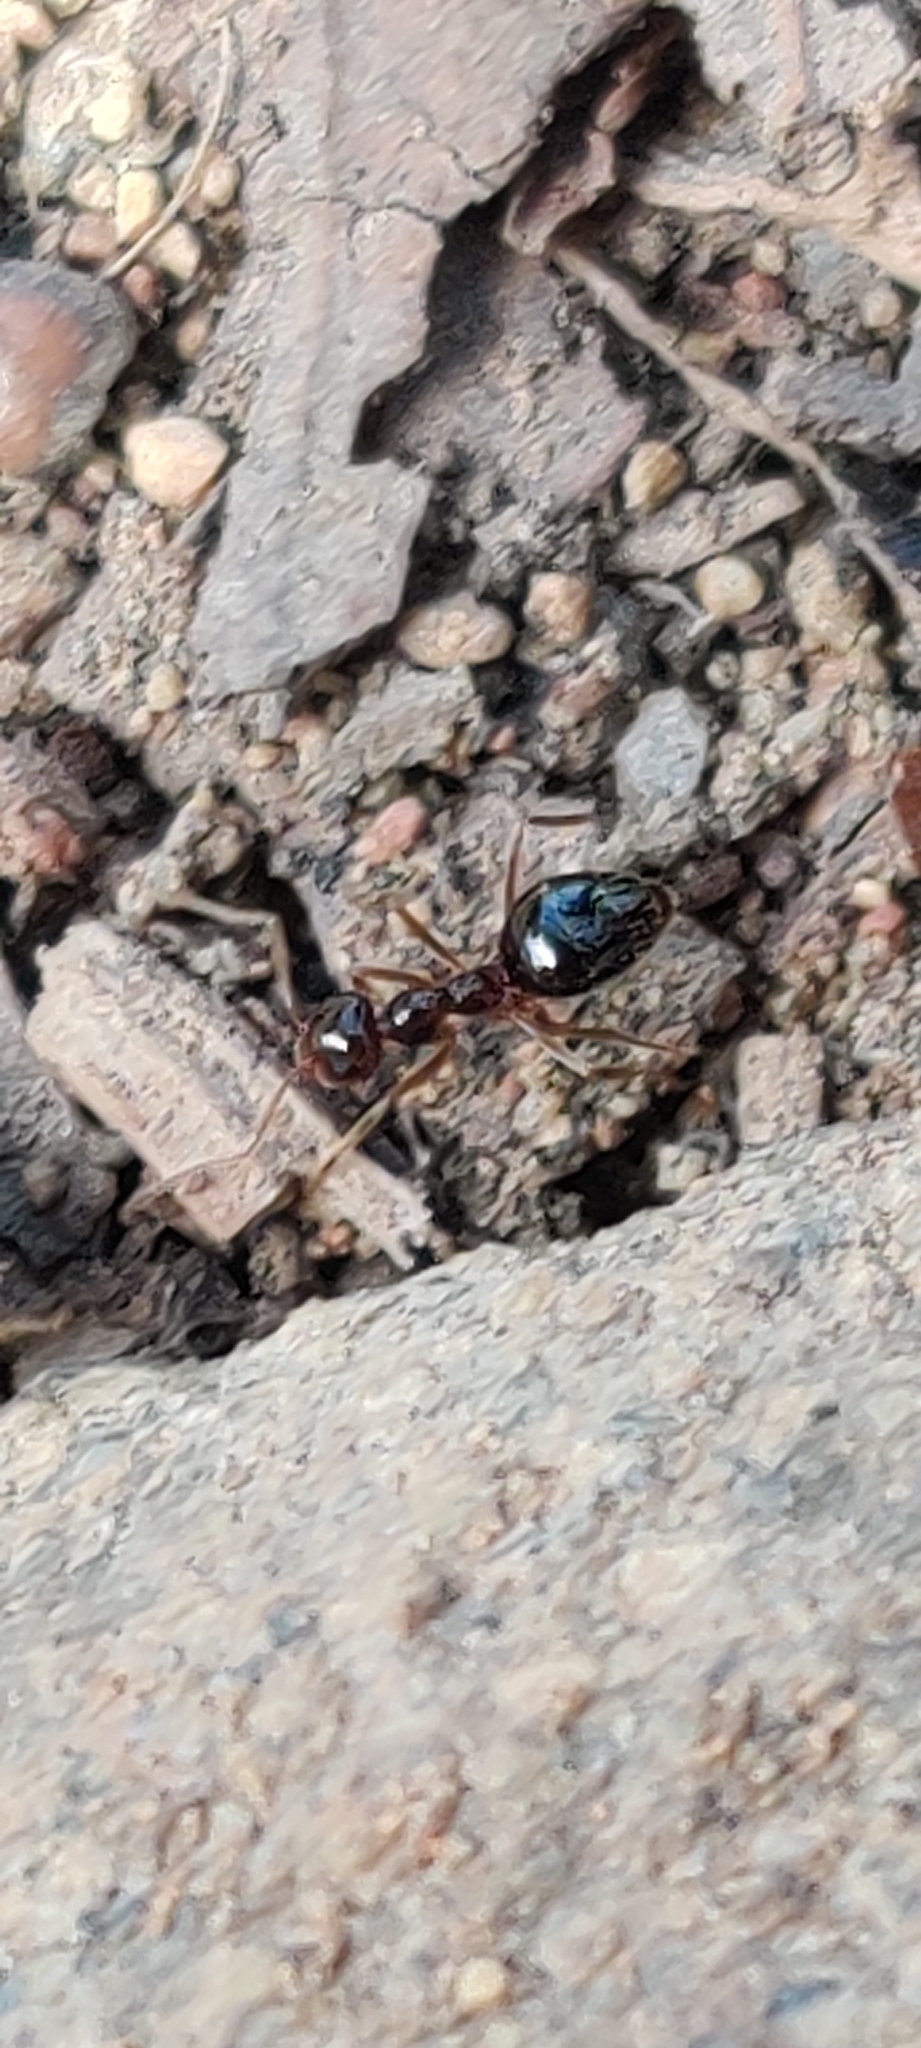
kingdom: Animalia
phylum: Arthropoda
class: Insecta
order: Hymenoptera
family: Formicidae
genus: Prenolepis
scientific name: Prenolepis imparis
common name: Small honey ant
